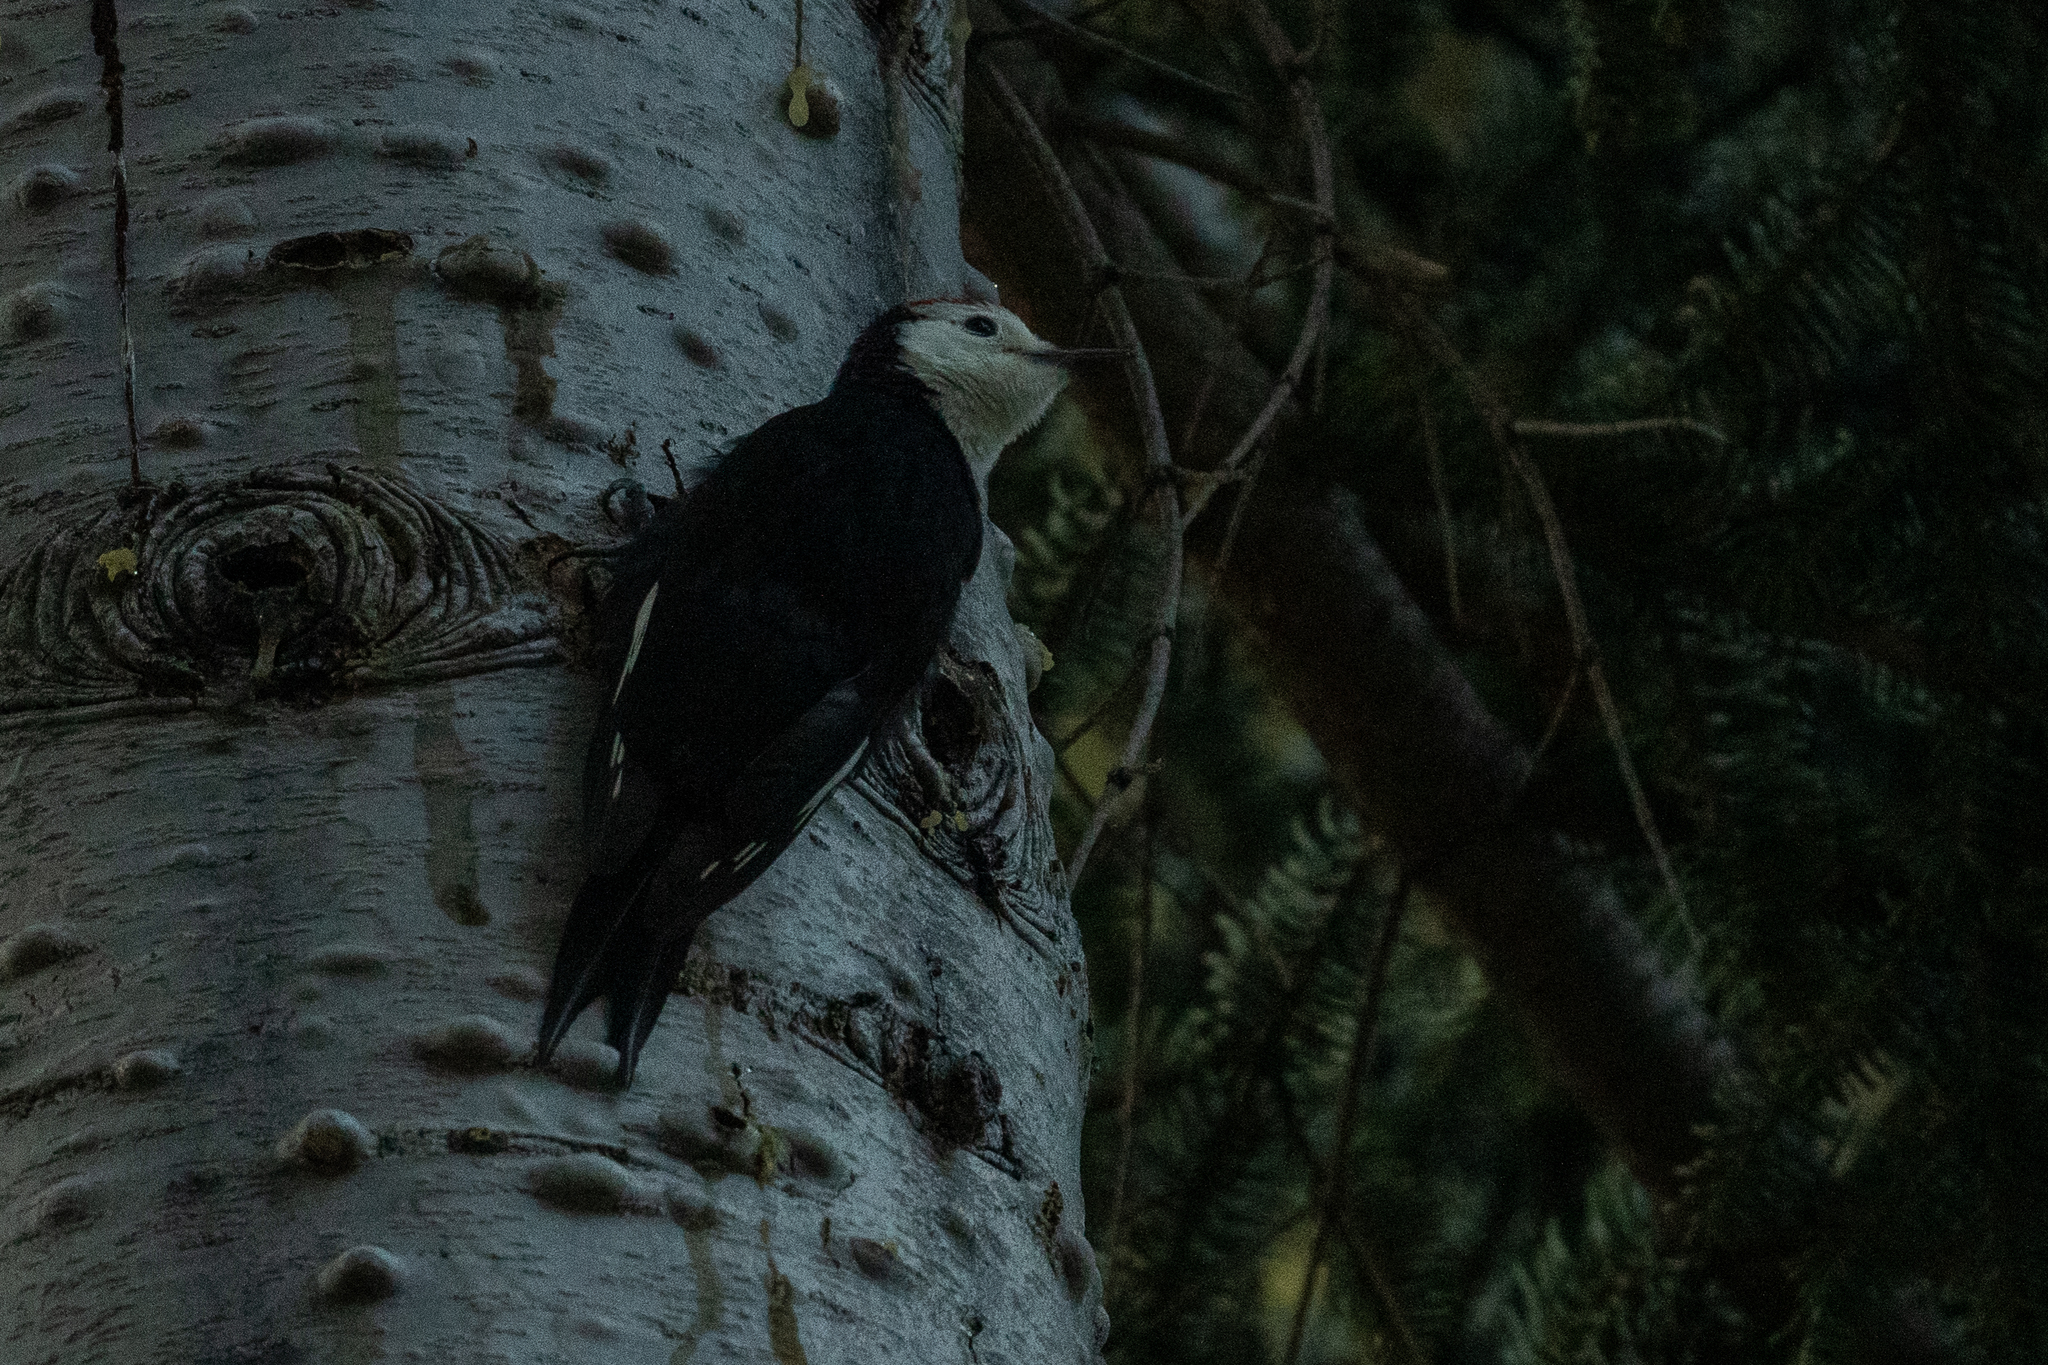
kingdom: Animalia
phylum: Chordata
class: Aves
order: Piciformes
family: Picidae
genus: Leuconotopicus
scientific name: Leuconotopicus albolarvatus
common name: White-headed woodpecker
